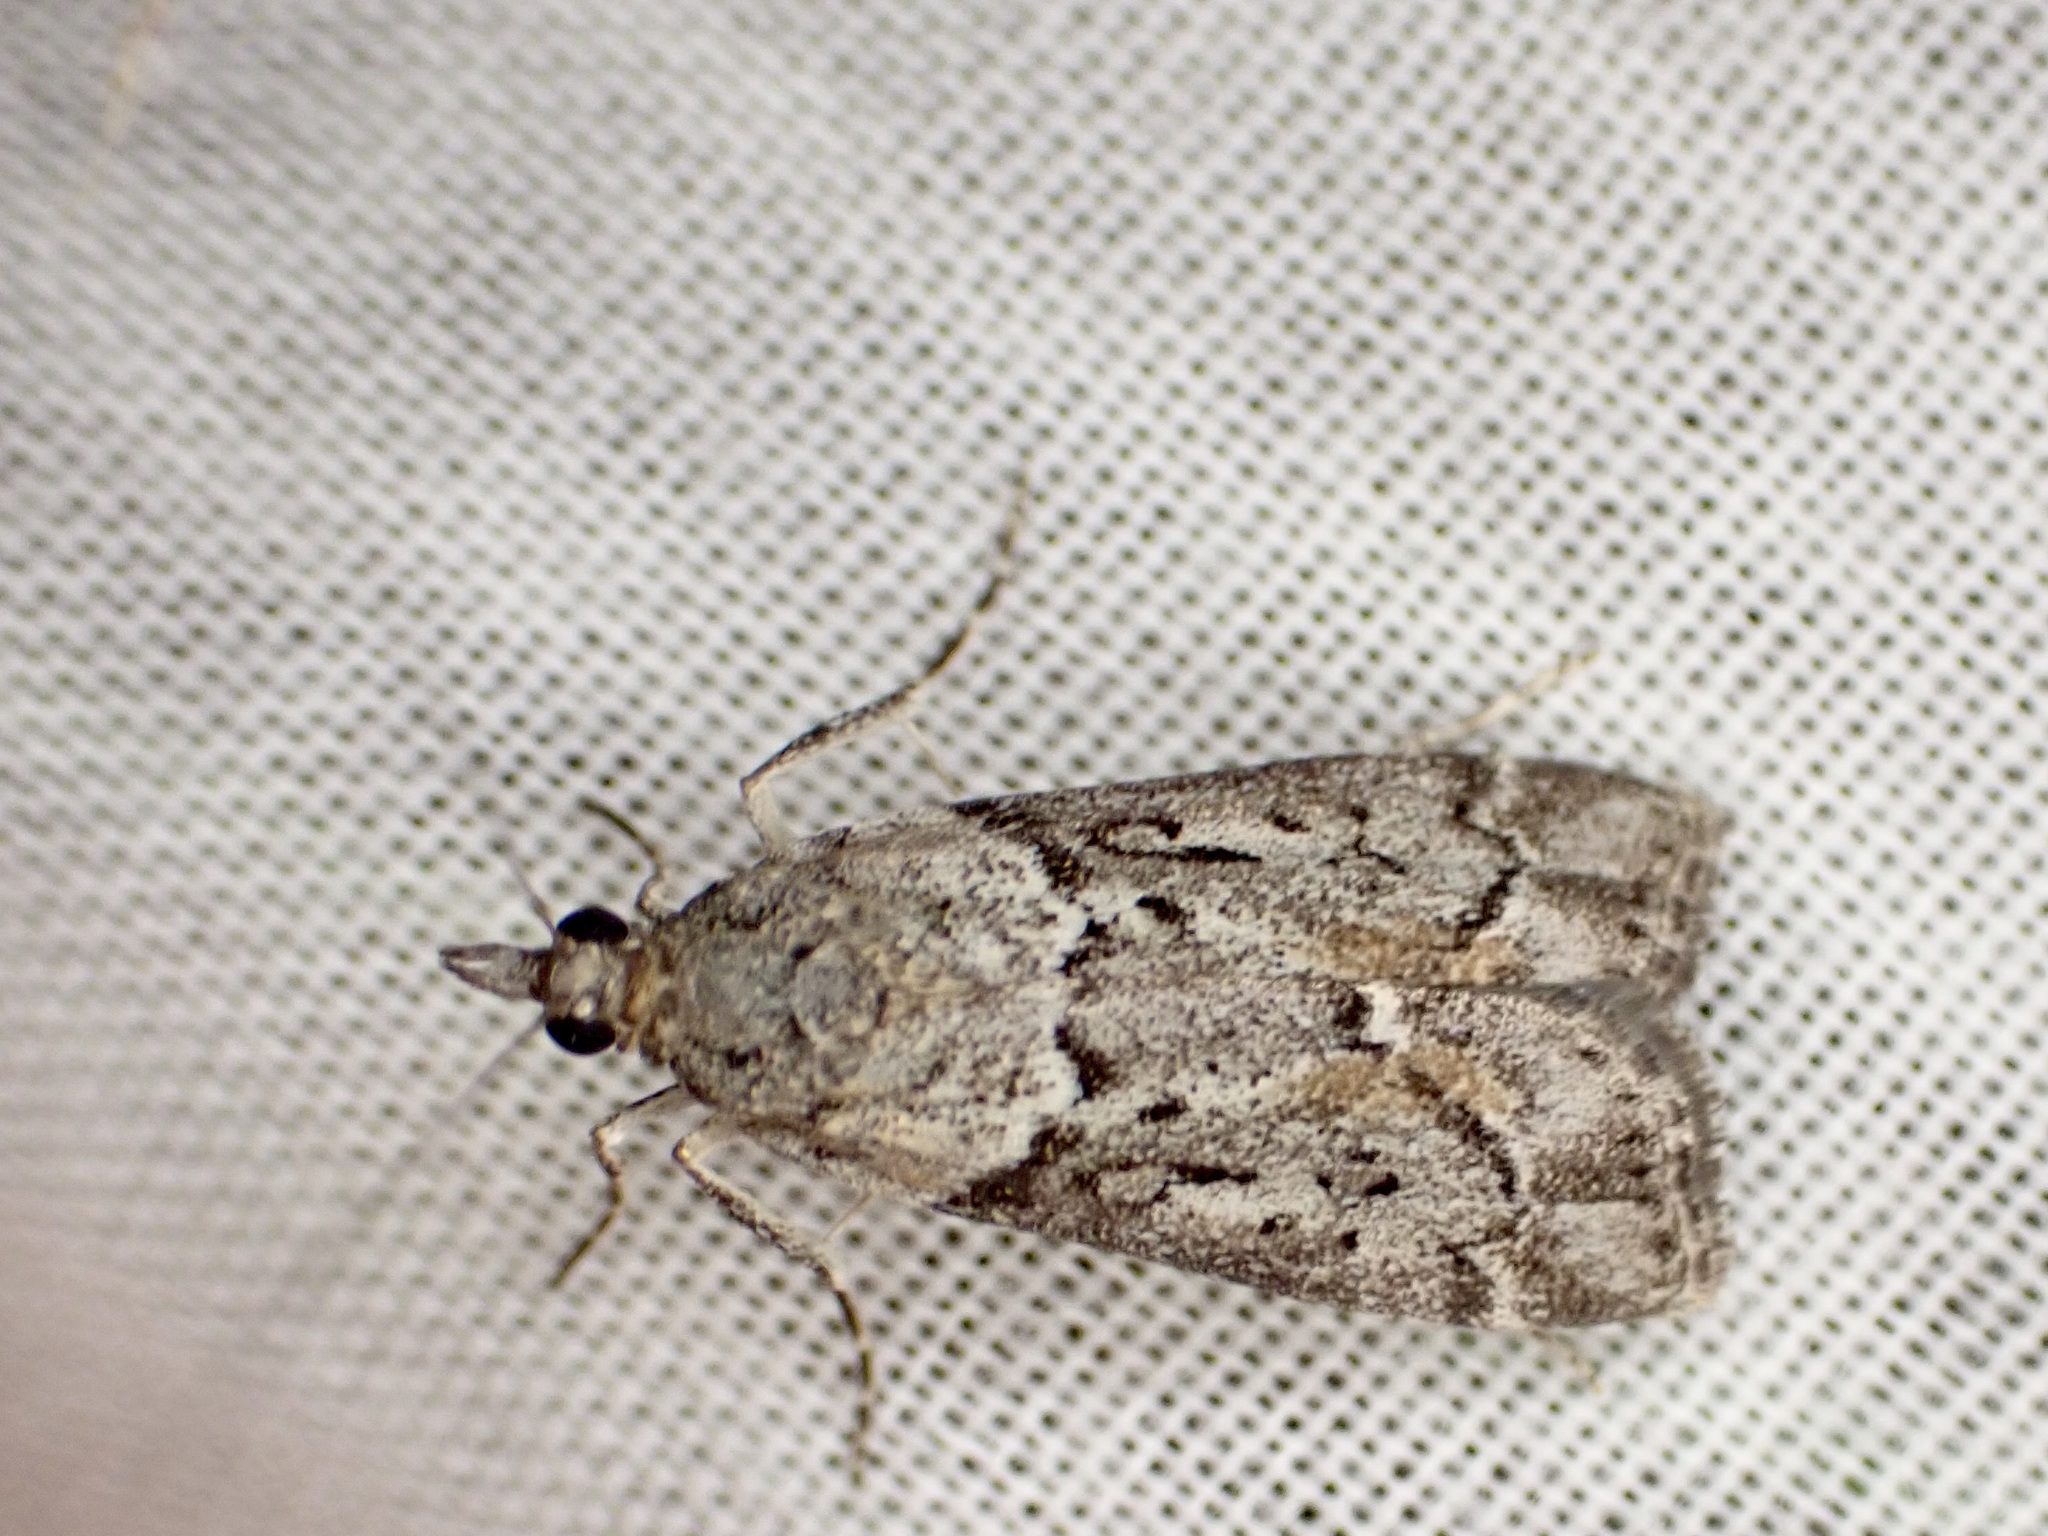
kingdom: Animalia
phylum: Arthropoda
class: Insecta
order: Lepidoptera
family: Crambidae
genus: Eudonia
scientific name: Eudonia submarginalis
